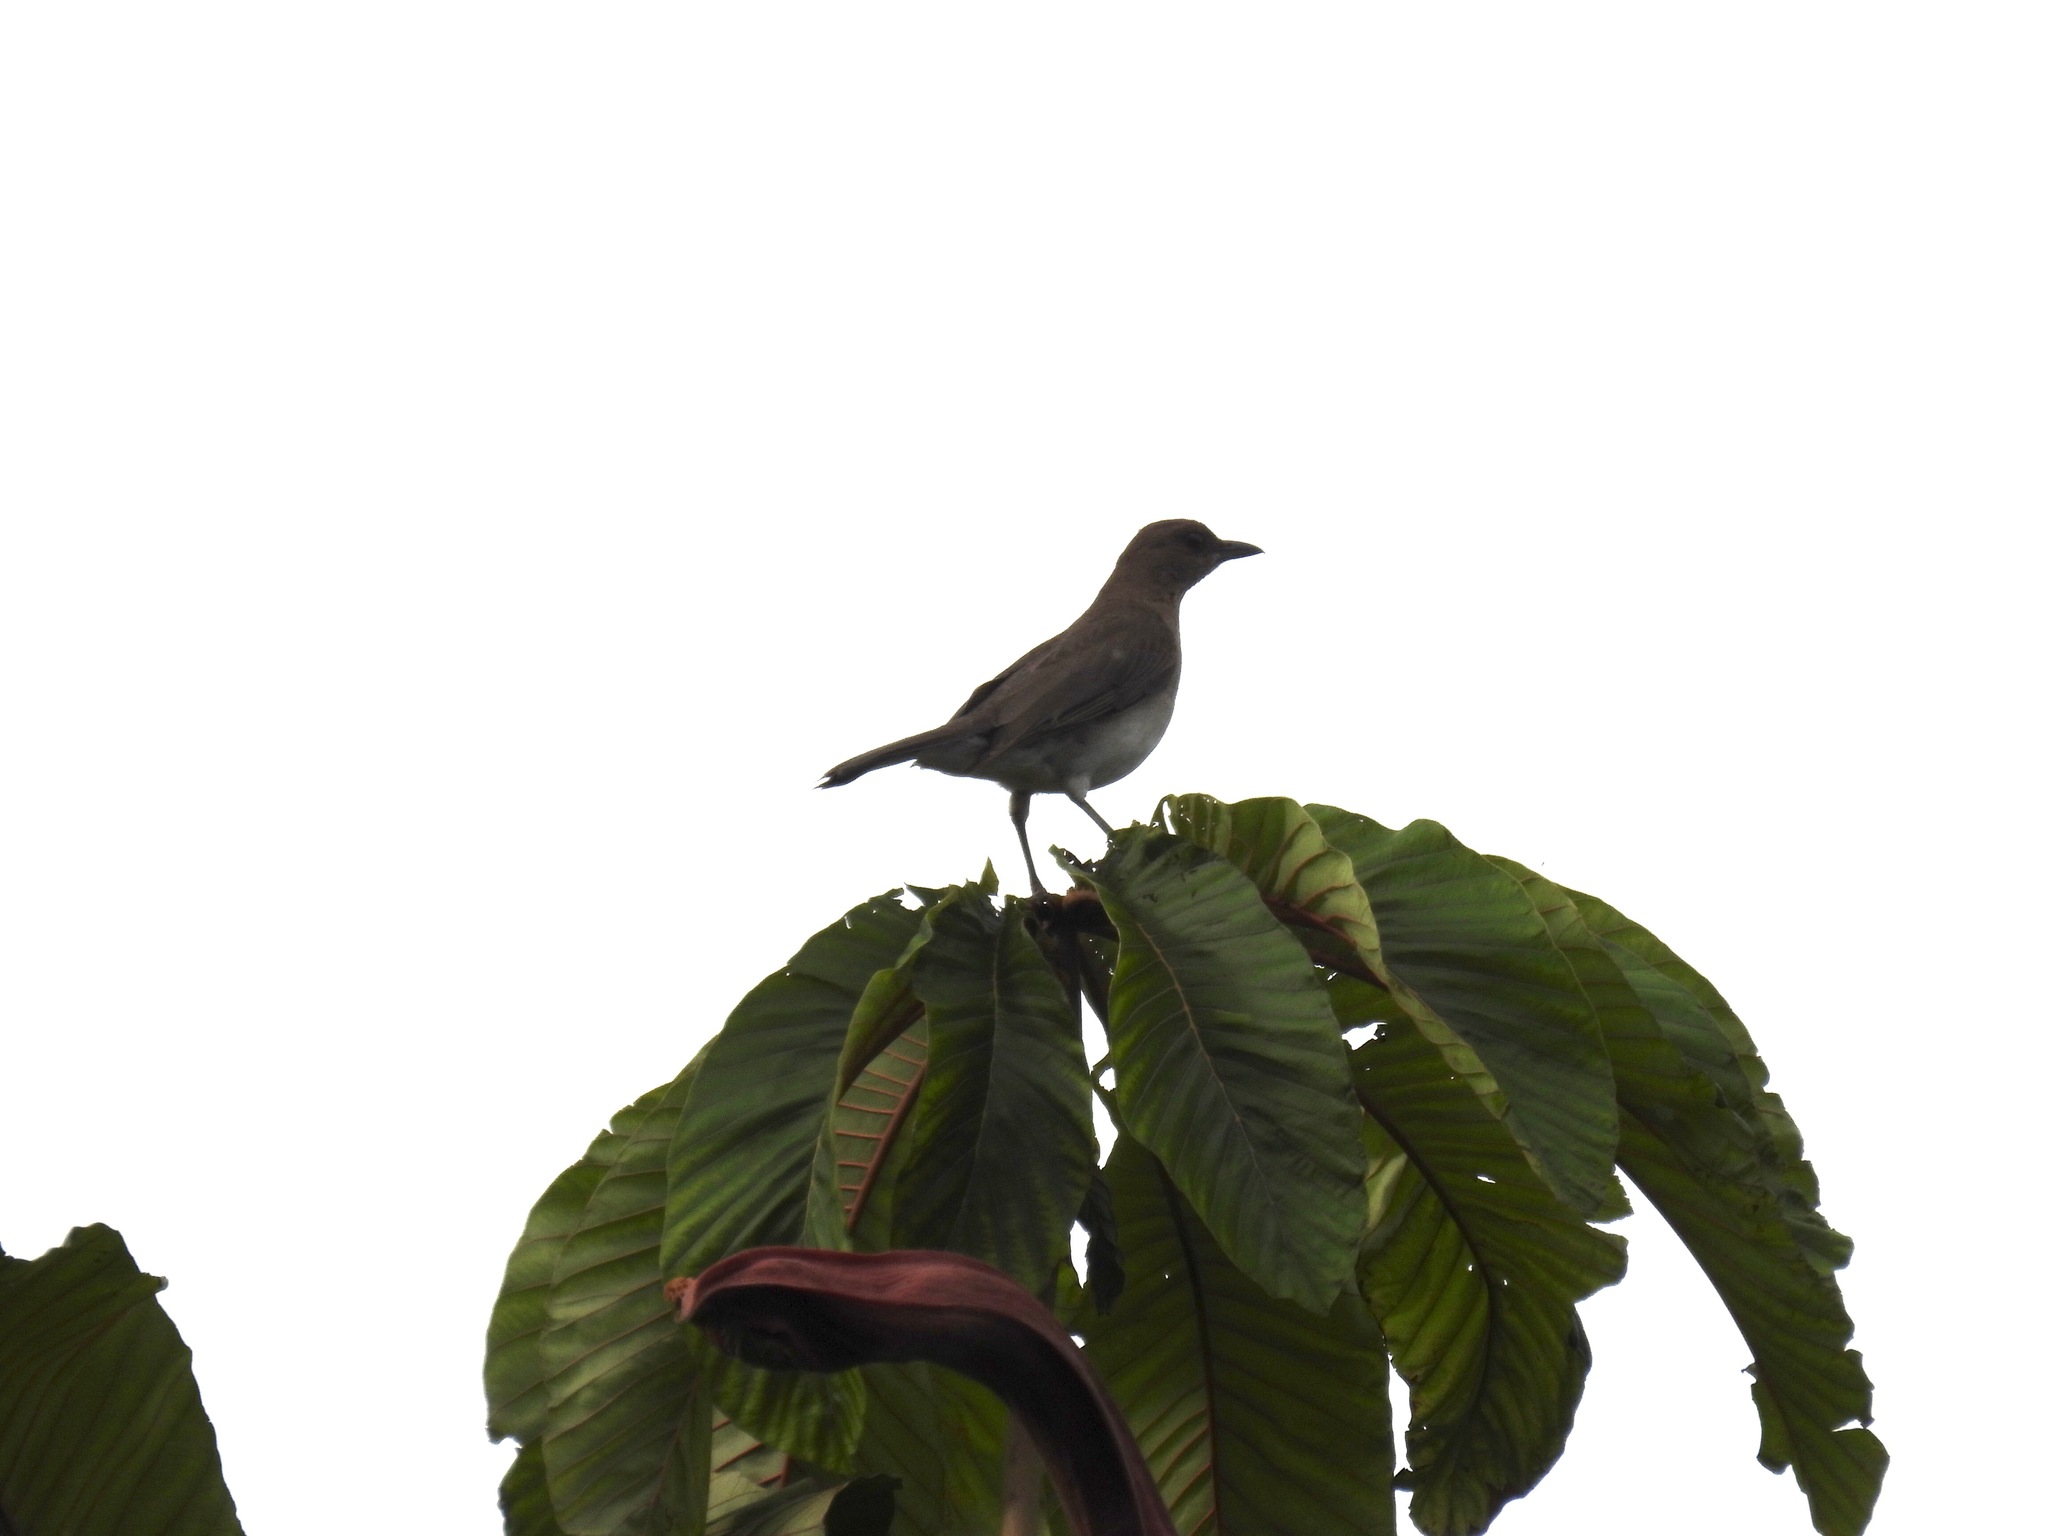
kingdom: Animalia
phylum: Chordata
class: Aves
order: Passeriformes
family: Turdidae
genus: Turdus
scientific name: Turdus ignobilis
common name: Black-billed thrush
